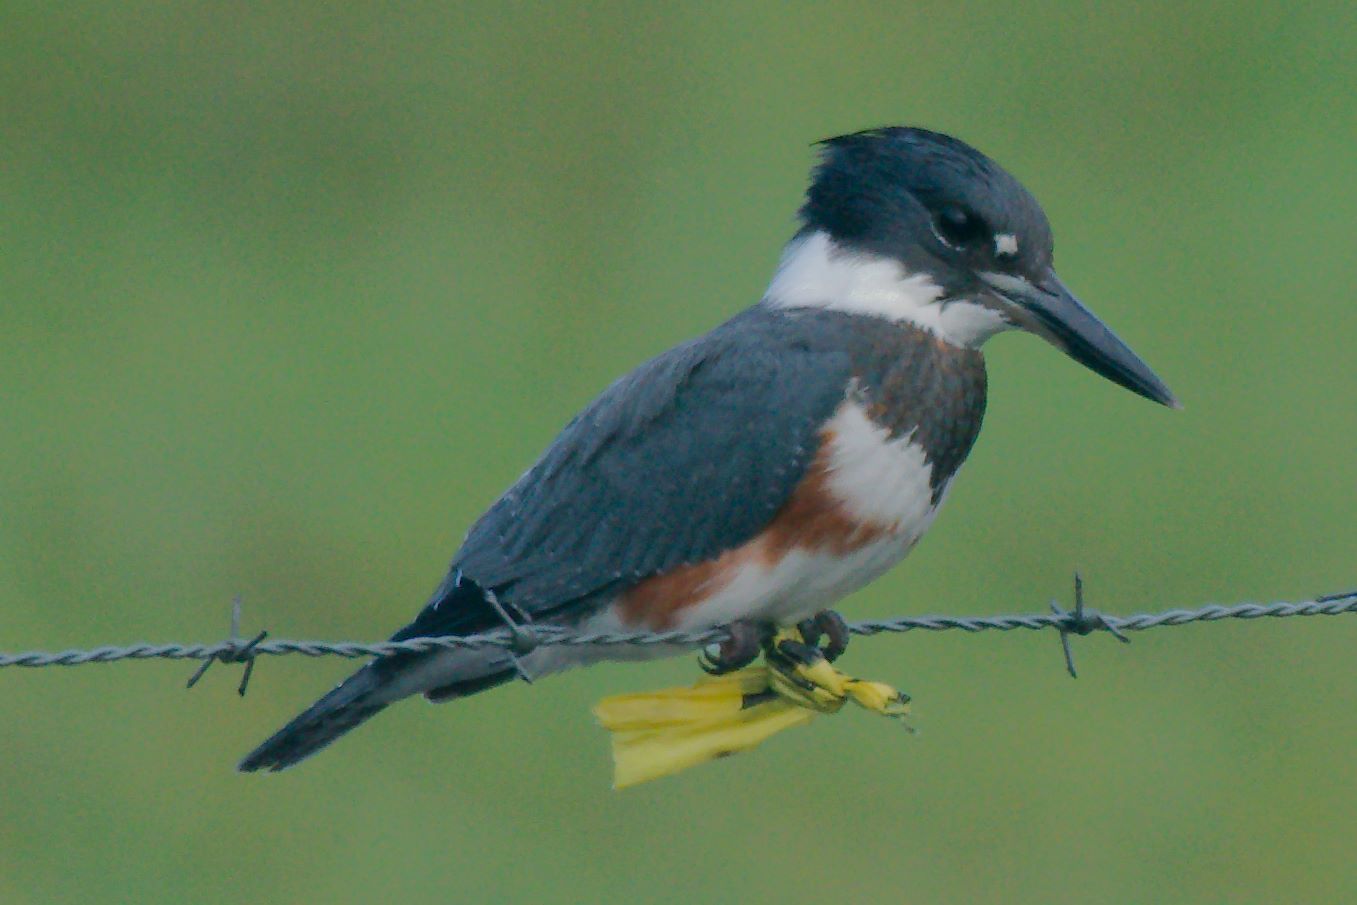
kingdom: Animalia
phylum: Chordata
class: Aves
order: Coraciiformes
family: Alcedinidae
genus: Megaceryle
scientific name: Megaceryle alcyon
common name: Belted kingfisher
